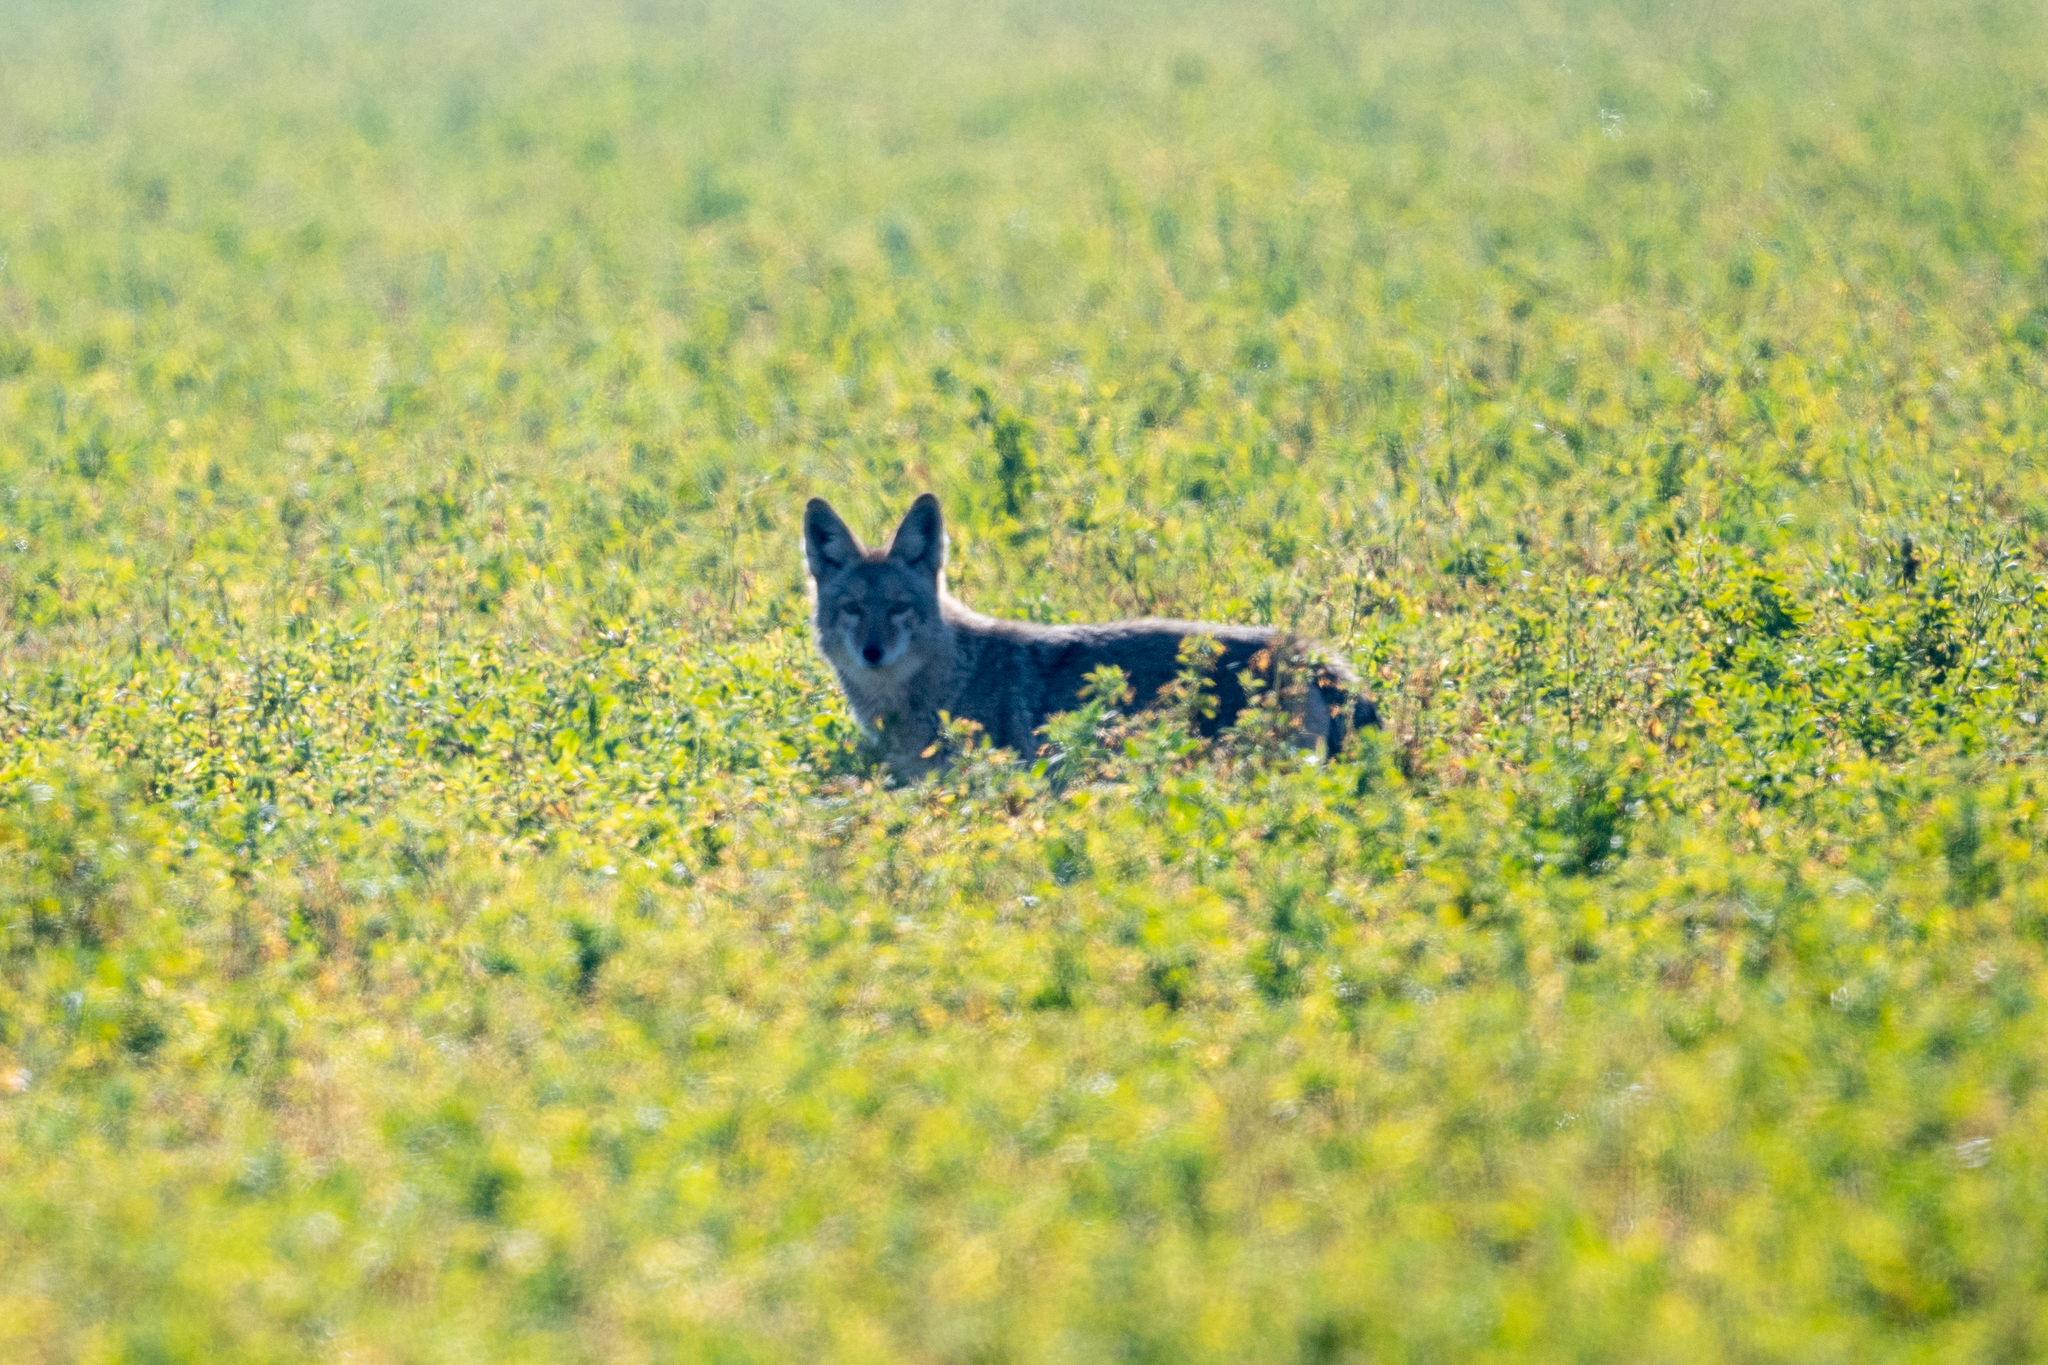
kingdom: Animalia
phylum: Chordata
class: Mammalia
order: Carnivora
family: Canidae
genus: Canis
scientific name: Canis latrans
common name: Coyote
